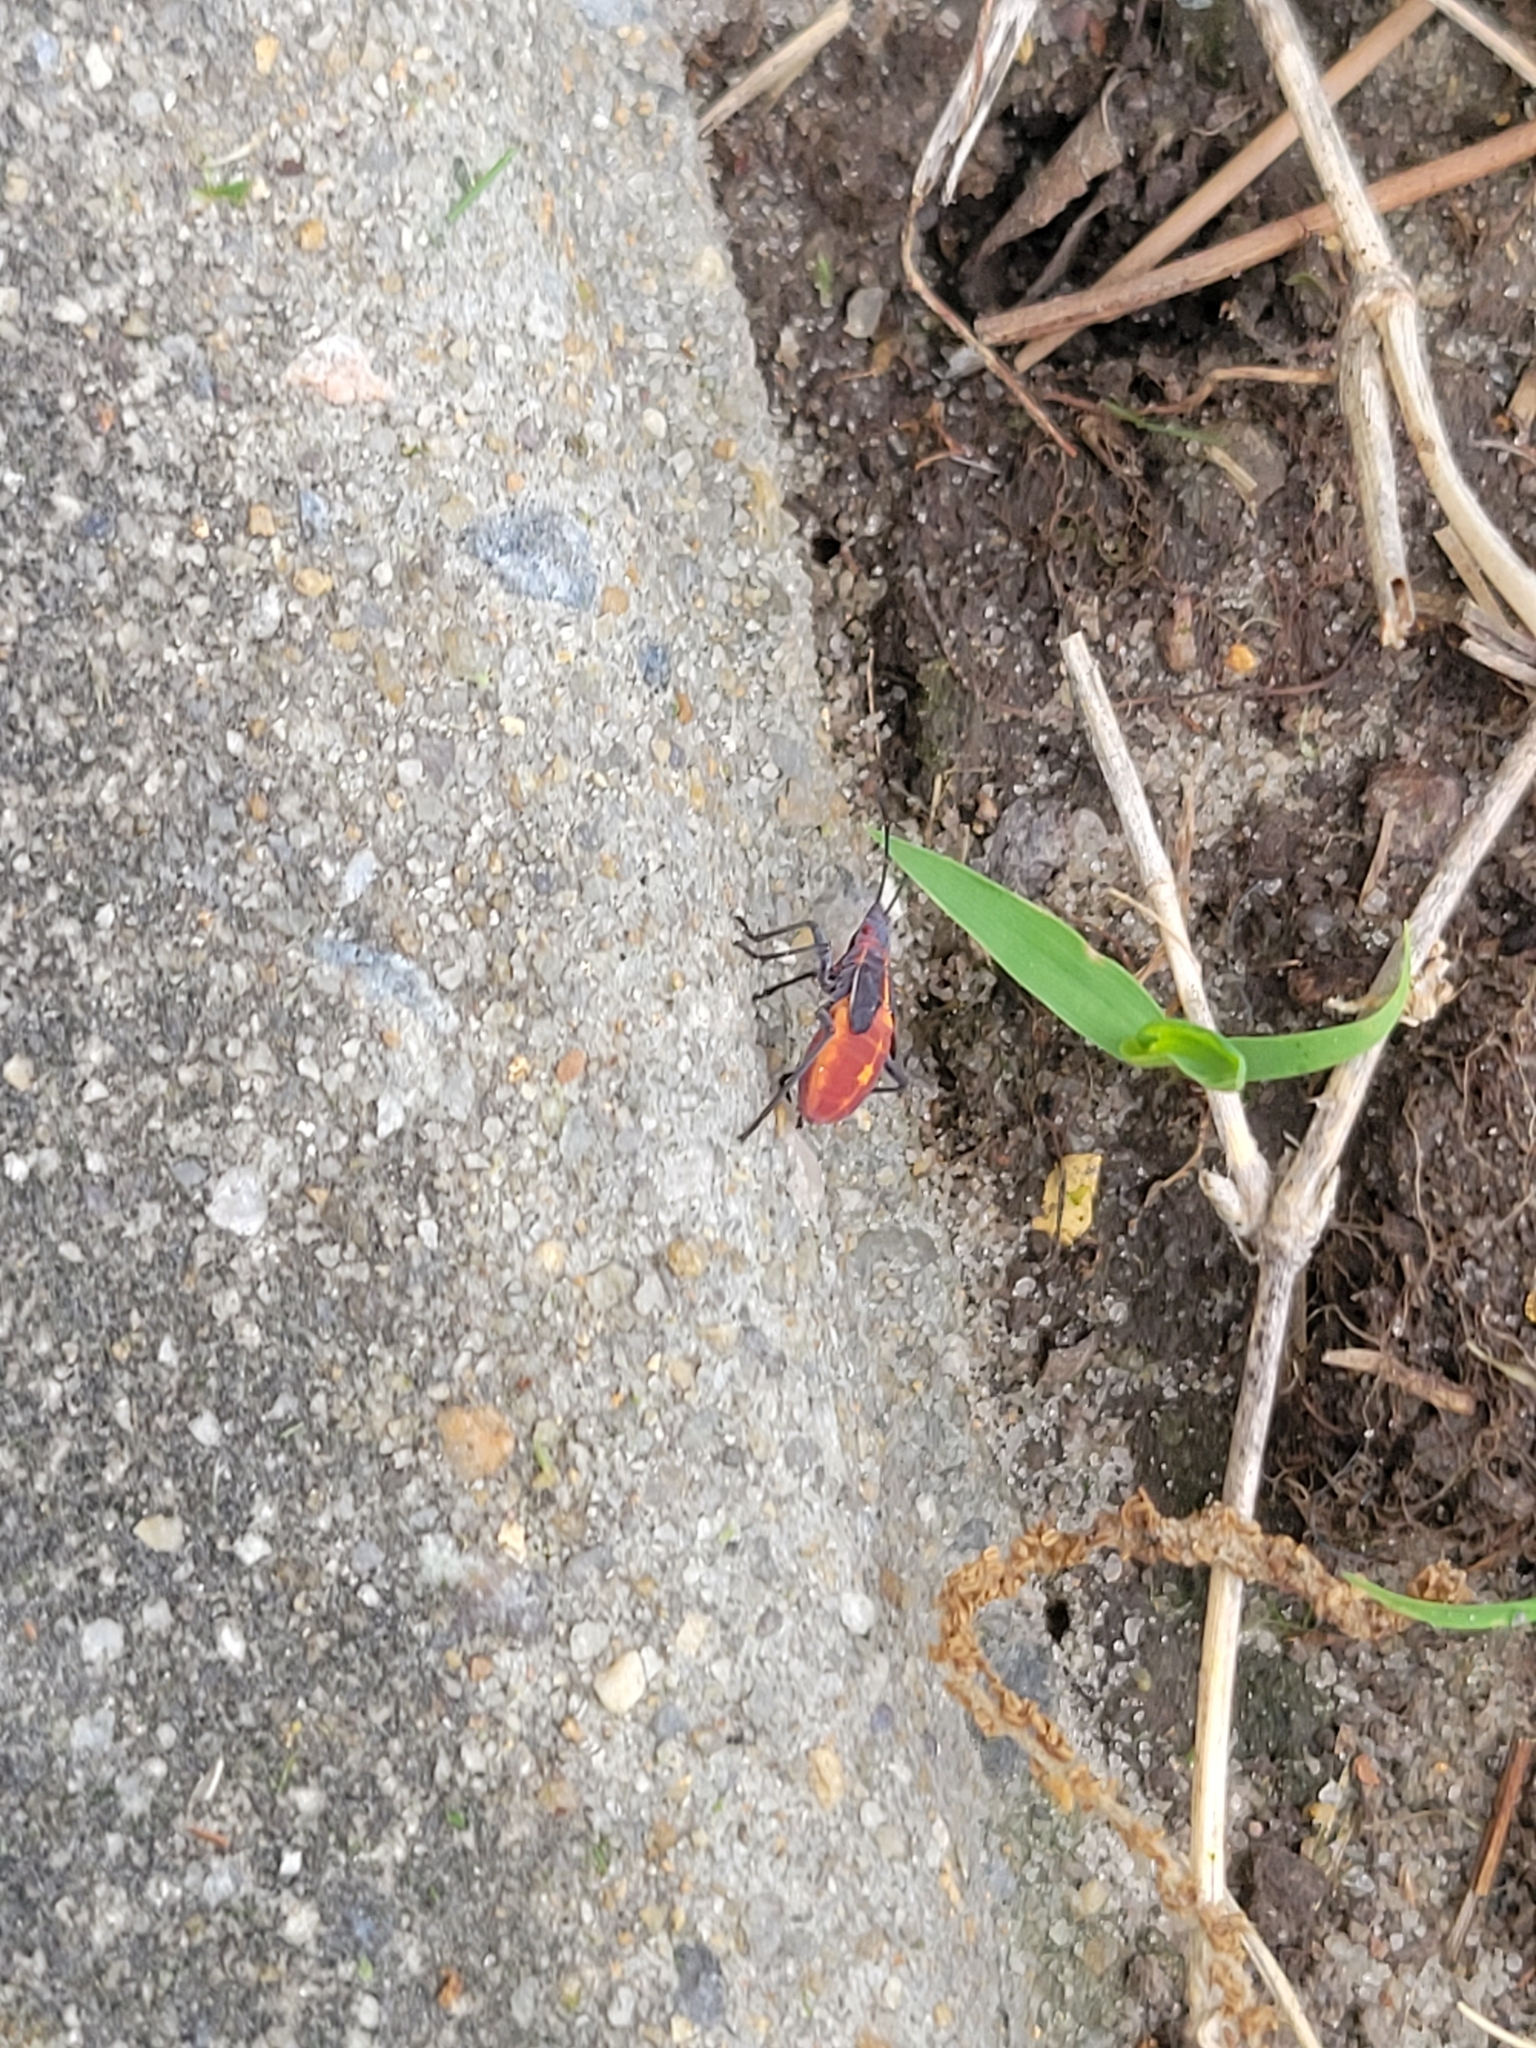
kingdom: Animalia
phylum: Arthropoda
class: Insecta
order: Hemiptera
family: Rhopalidae
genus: Boisea
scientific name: Boisea trivittata
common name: Boxelder bug
